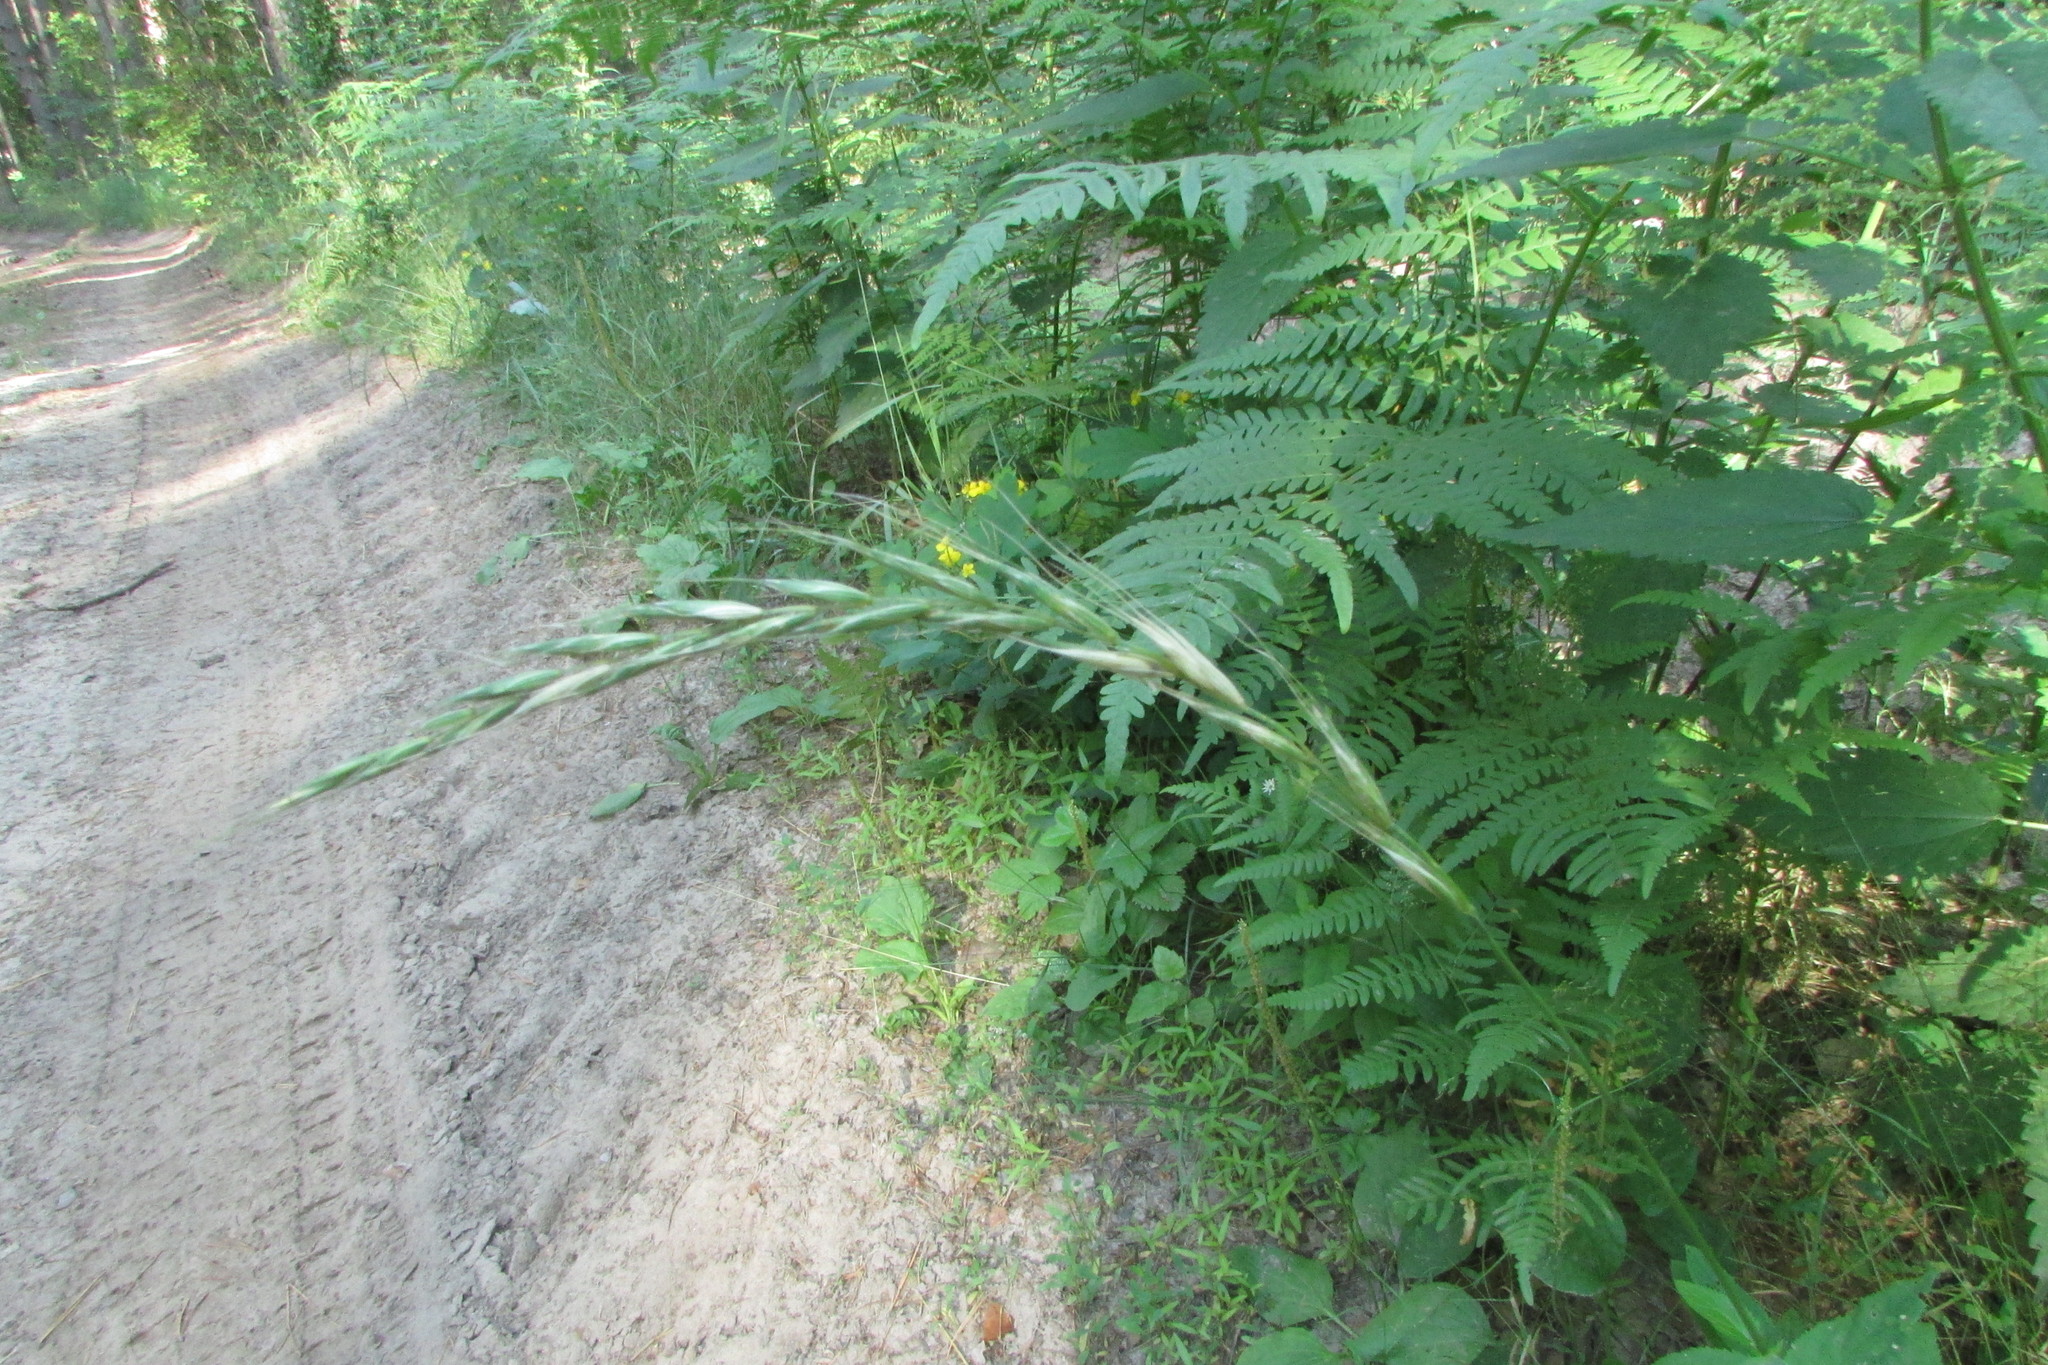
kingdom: Plantae
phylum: Tracheophyta
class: Liliopsida
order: Poales
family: Poaceae
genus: Elymus
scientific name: Elymus caninus
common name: Bearded couch
